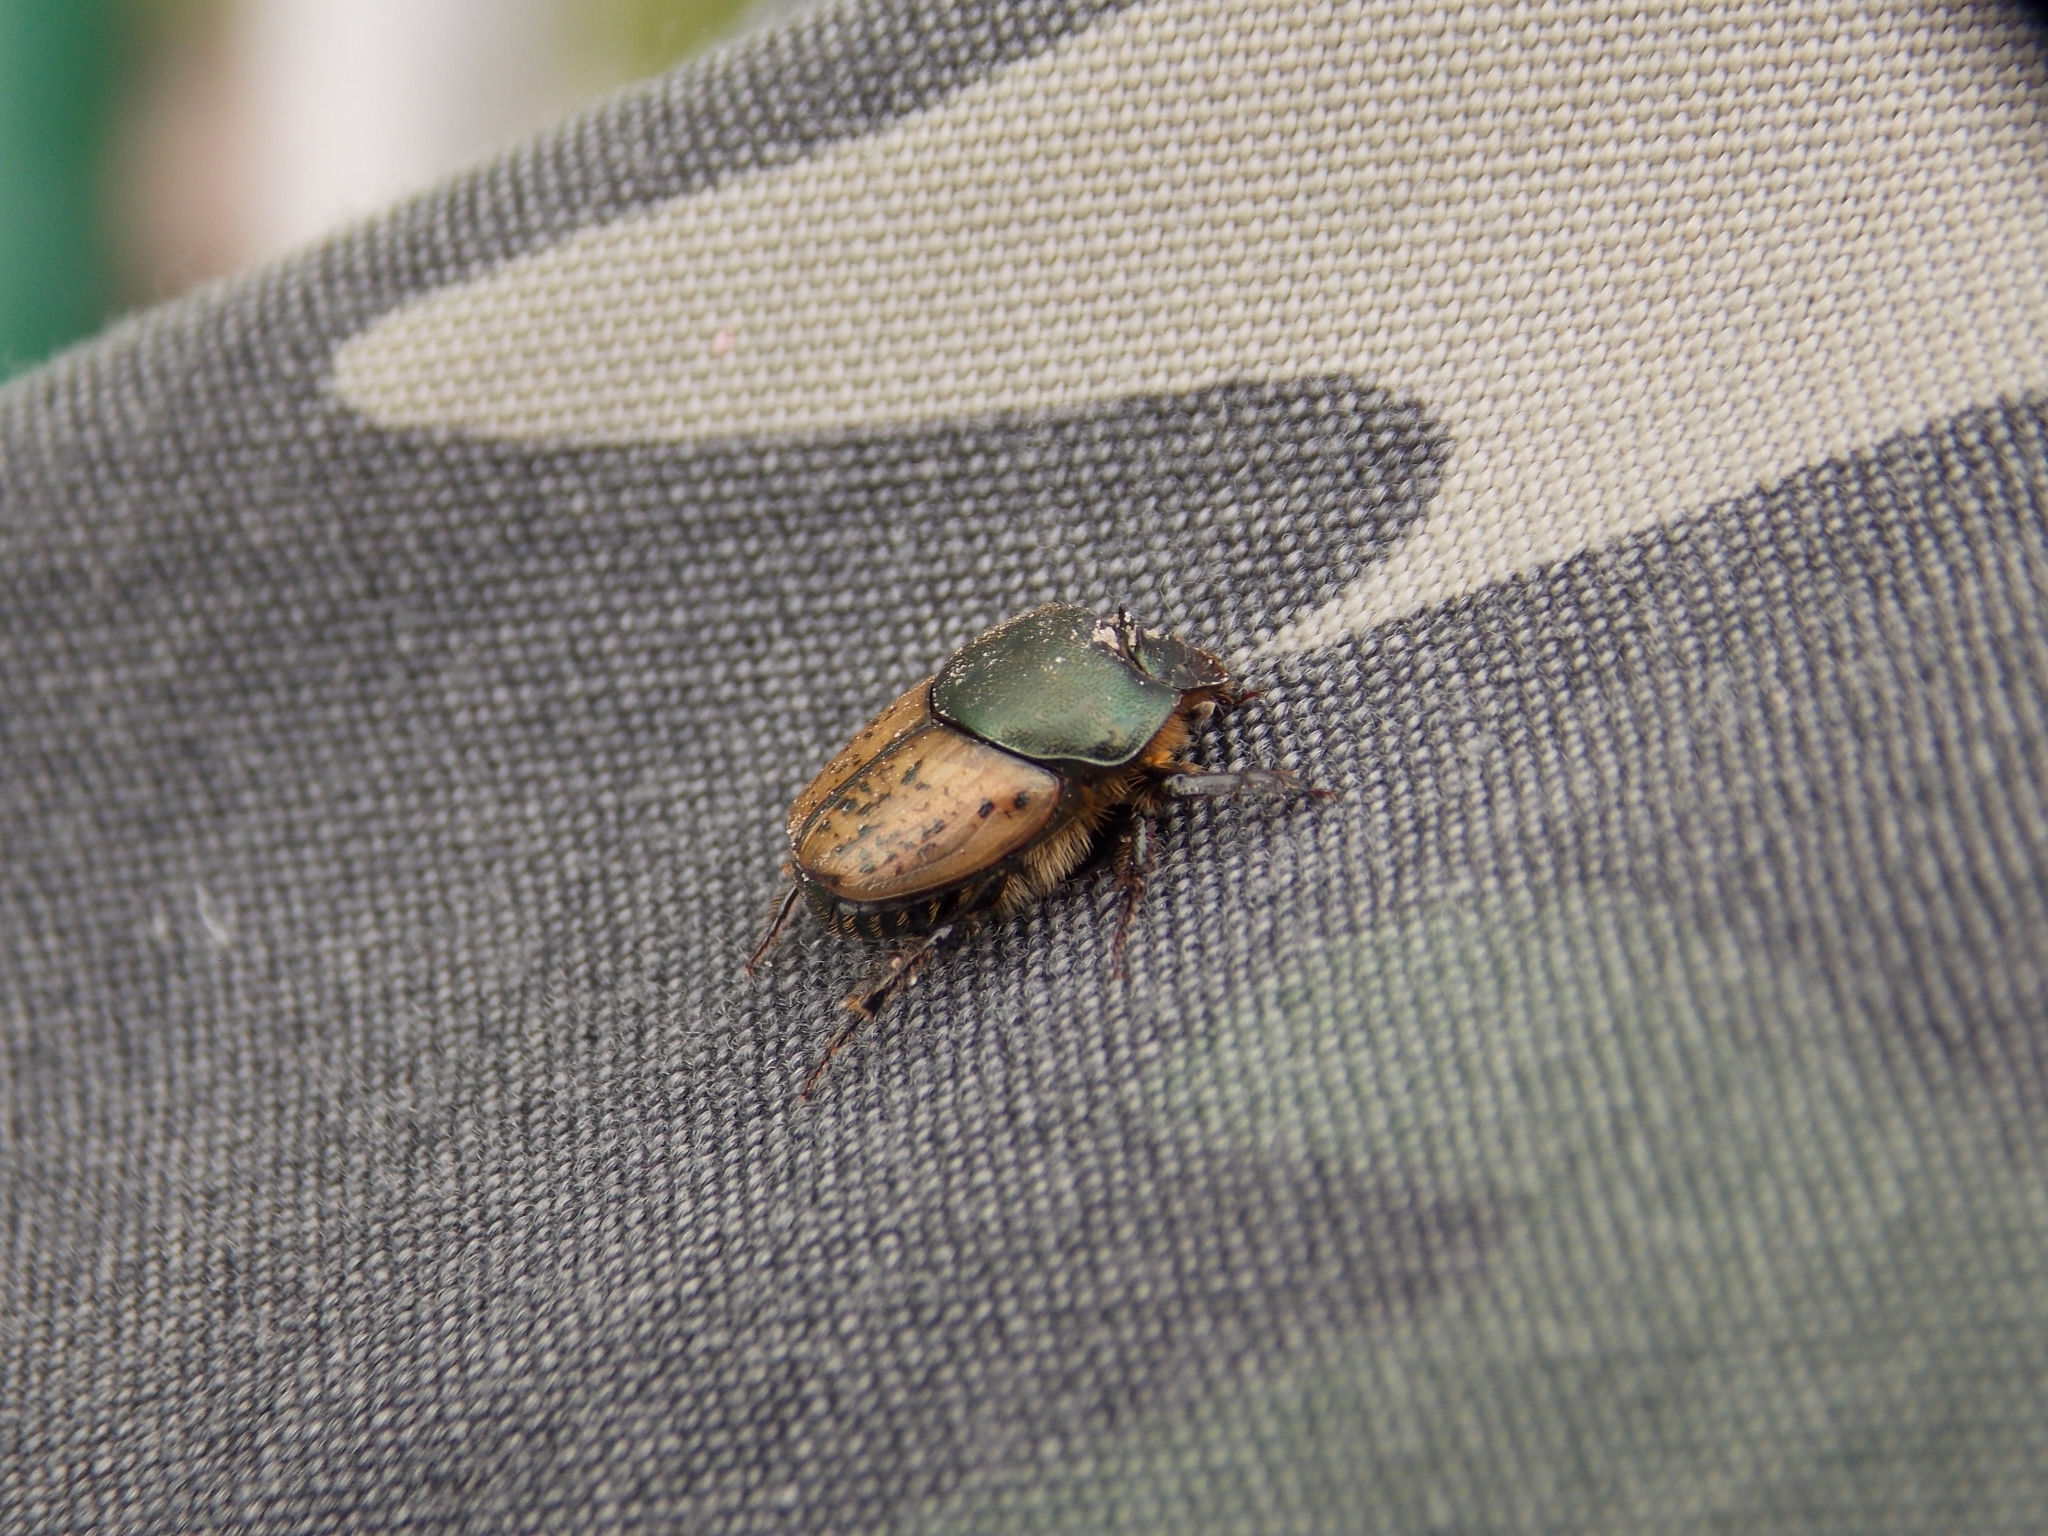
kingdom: Animalia
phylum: Arthropoda
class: Insecta
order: Coleoptera
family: Scarabaeidae
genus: Onthophagus
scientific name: Onthophagus coenobita
